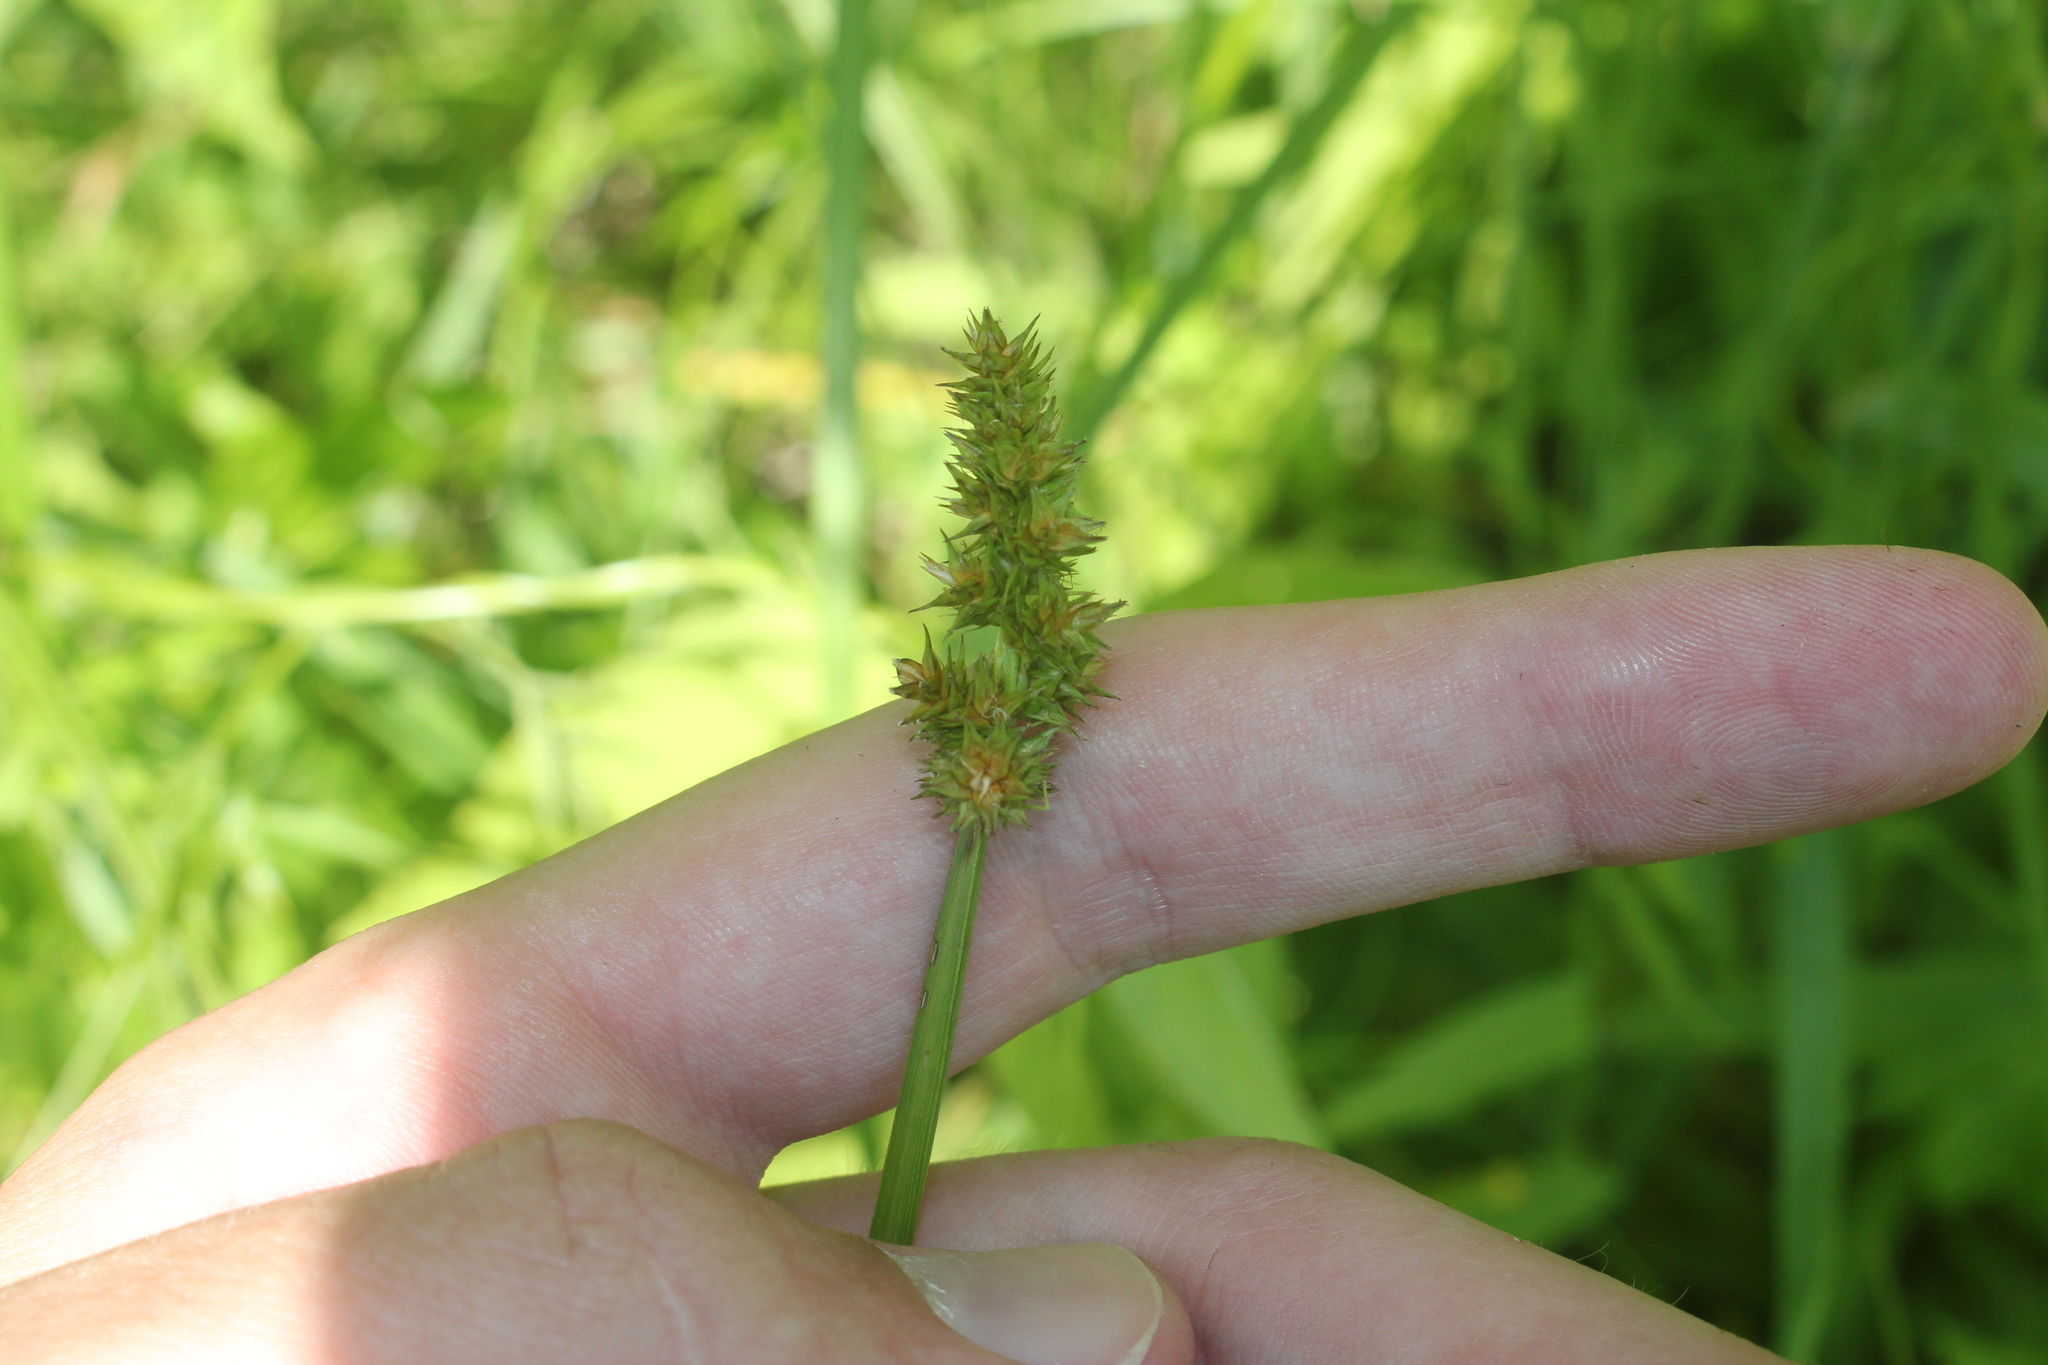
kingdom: Plantae
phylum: Tracheophyta
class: Liliopsida
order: Poales
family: Cyperaceae
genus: Carex
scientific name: Carex alopecoidea
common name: Brown-headed fox sedge
